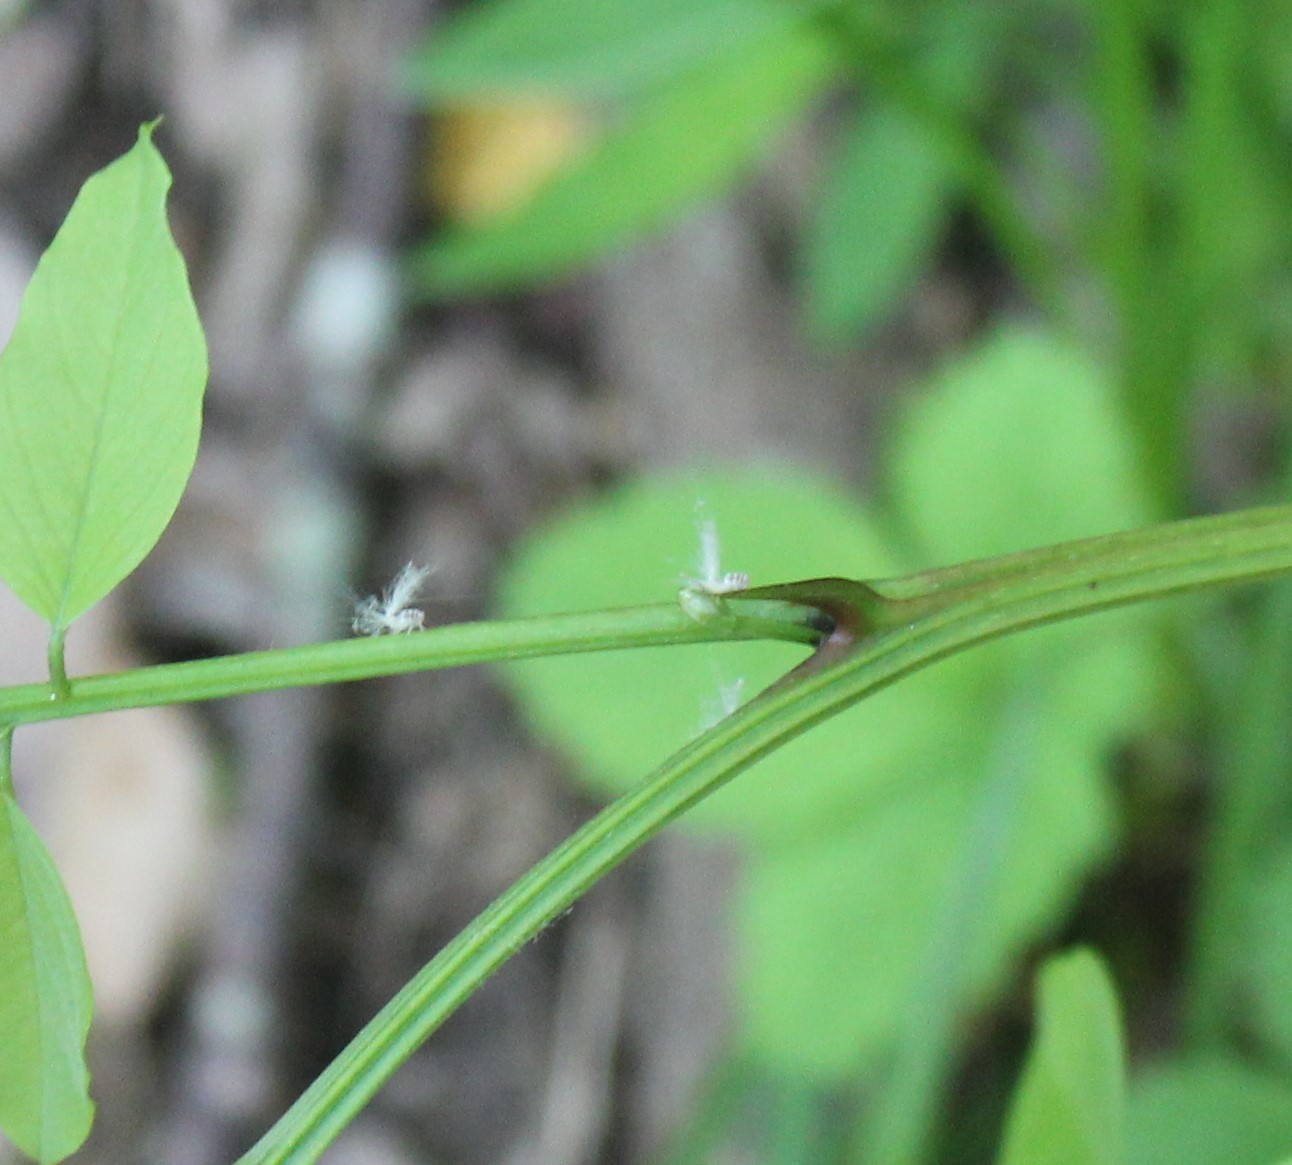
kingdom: Animalia
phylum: Arthropoda
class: Insecta
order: Hemiptera
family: Ricaniidae
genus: Orosanga
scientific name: Orosanga
